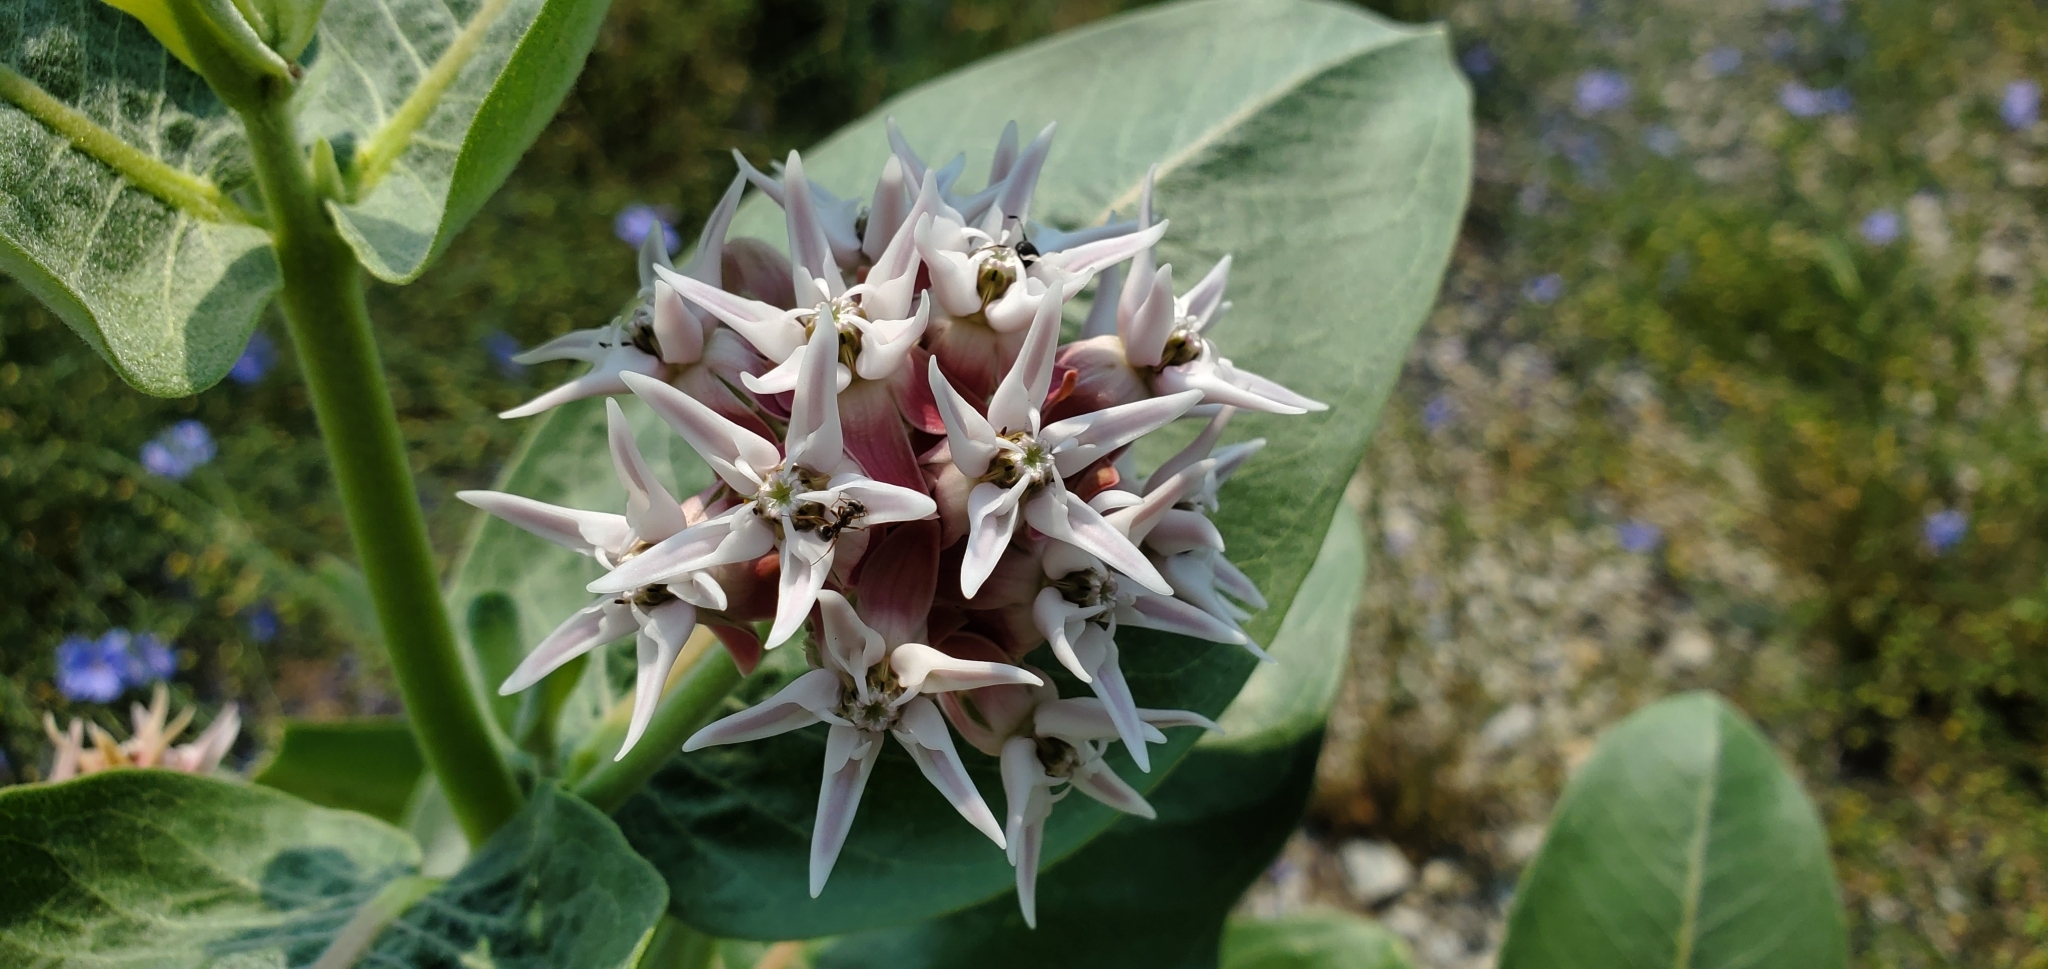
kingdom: Plantae
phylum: Tracheophyta
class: Magnoliopsida
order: Gentianales
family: Apocynaceae
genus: Asclepias
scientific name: Asclepias speciosa
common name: Showy milkweed
